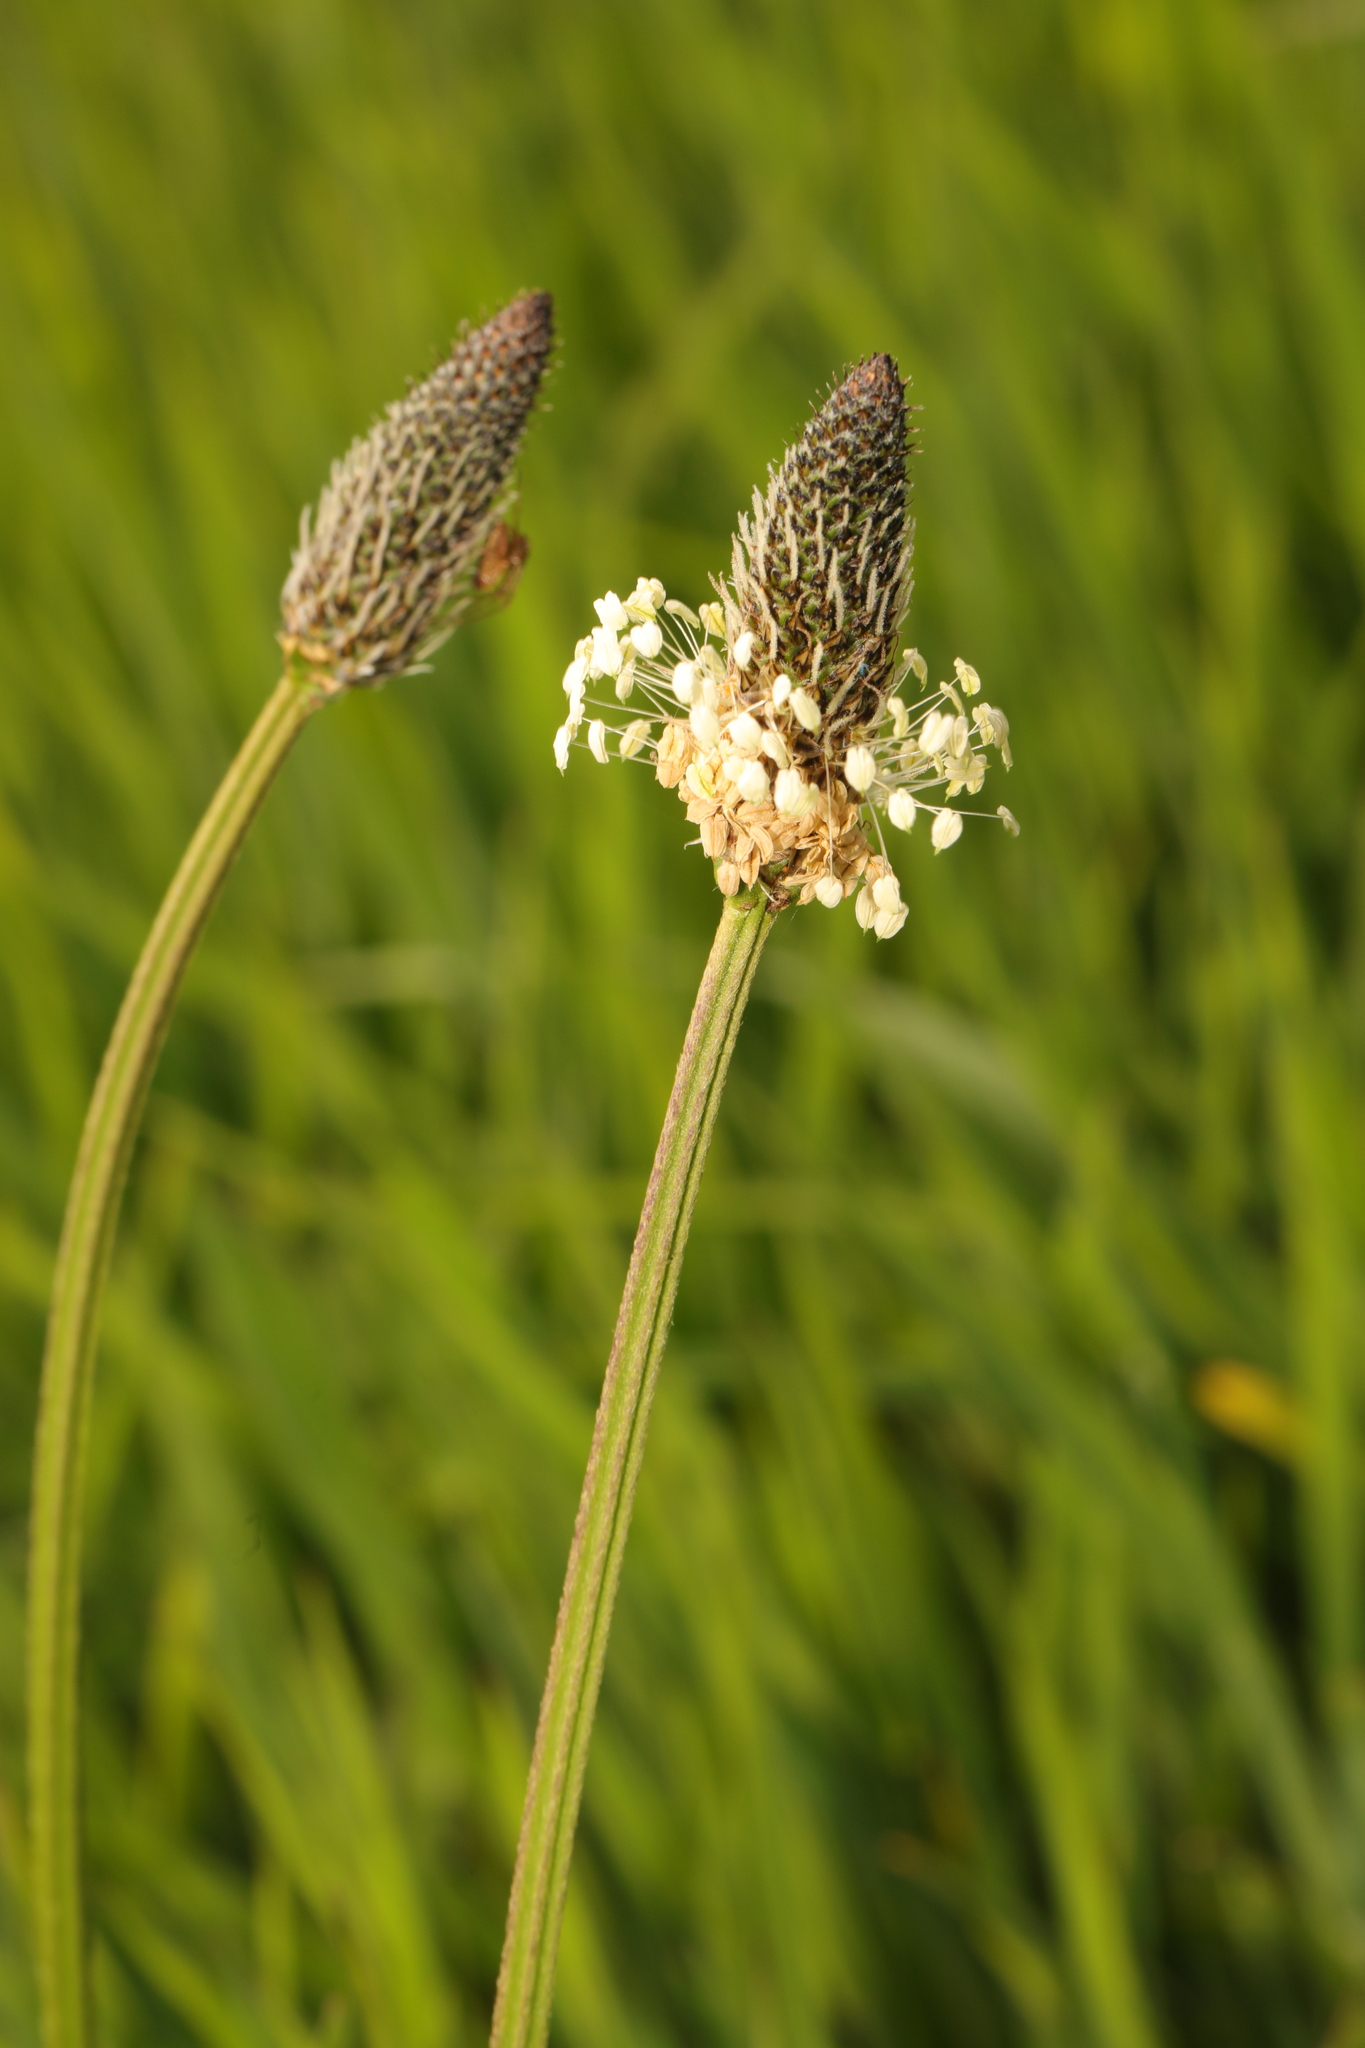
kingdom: Plantae
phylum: Tracheophyta
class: Magnoliopsida
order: Lamiales
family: Plantaginaceae
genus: Plantago
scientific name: Plantago lanceolata
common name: Ribwort plantain
